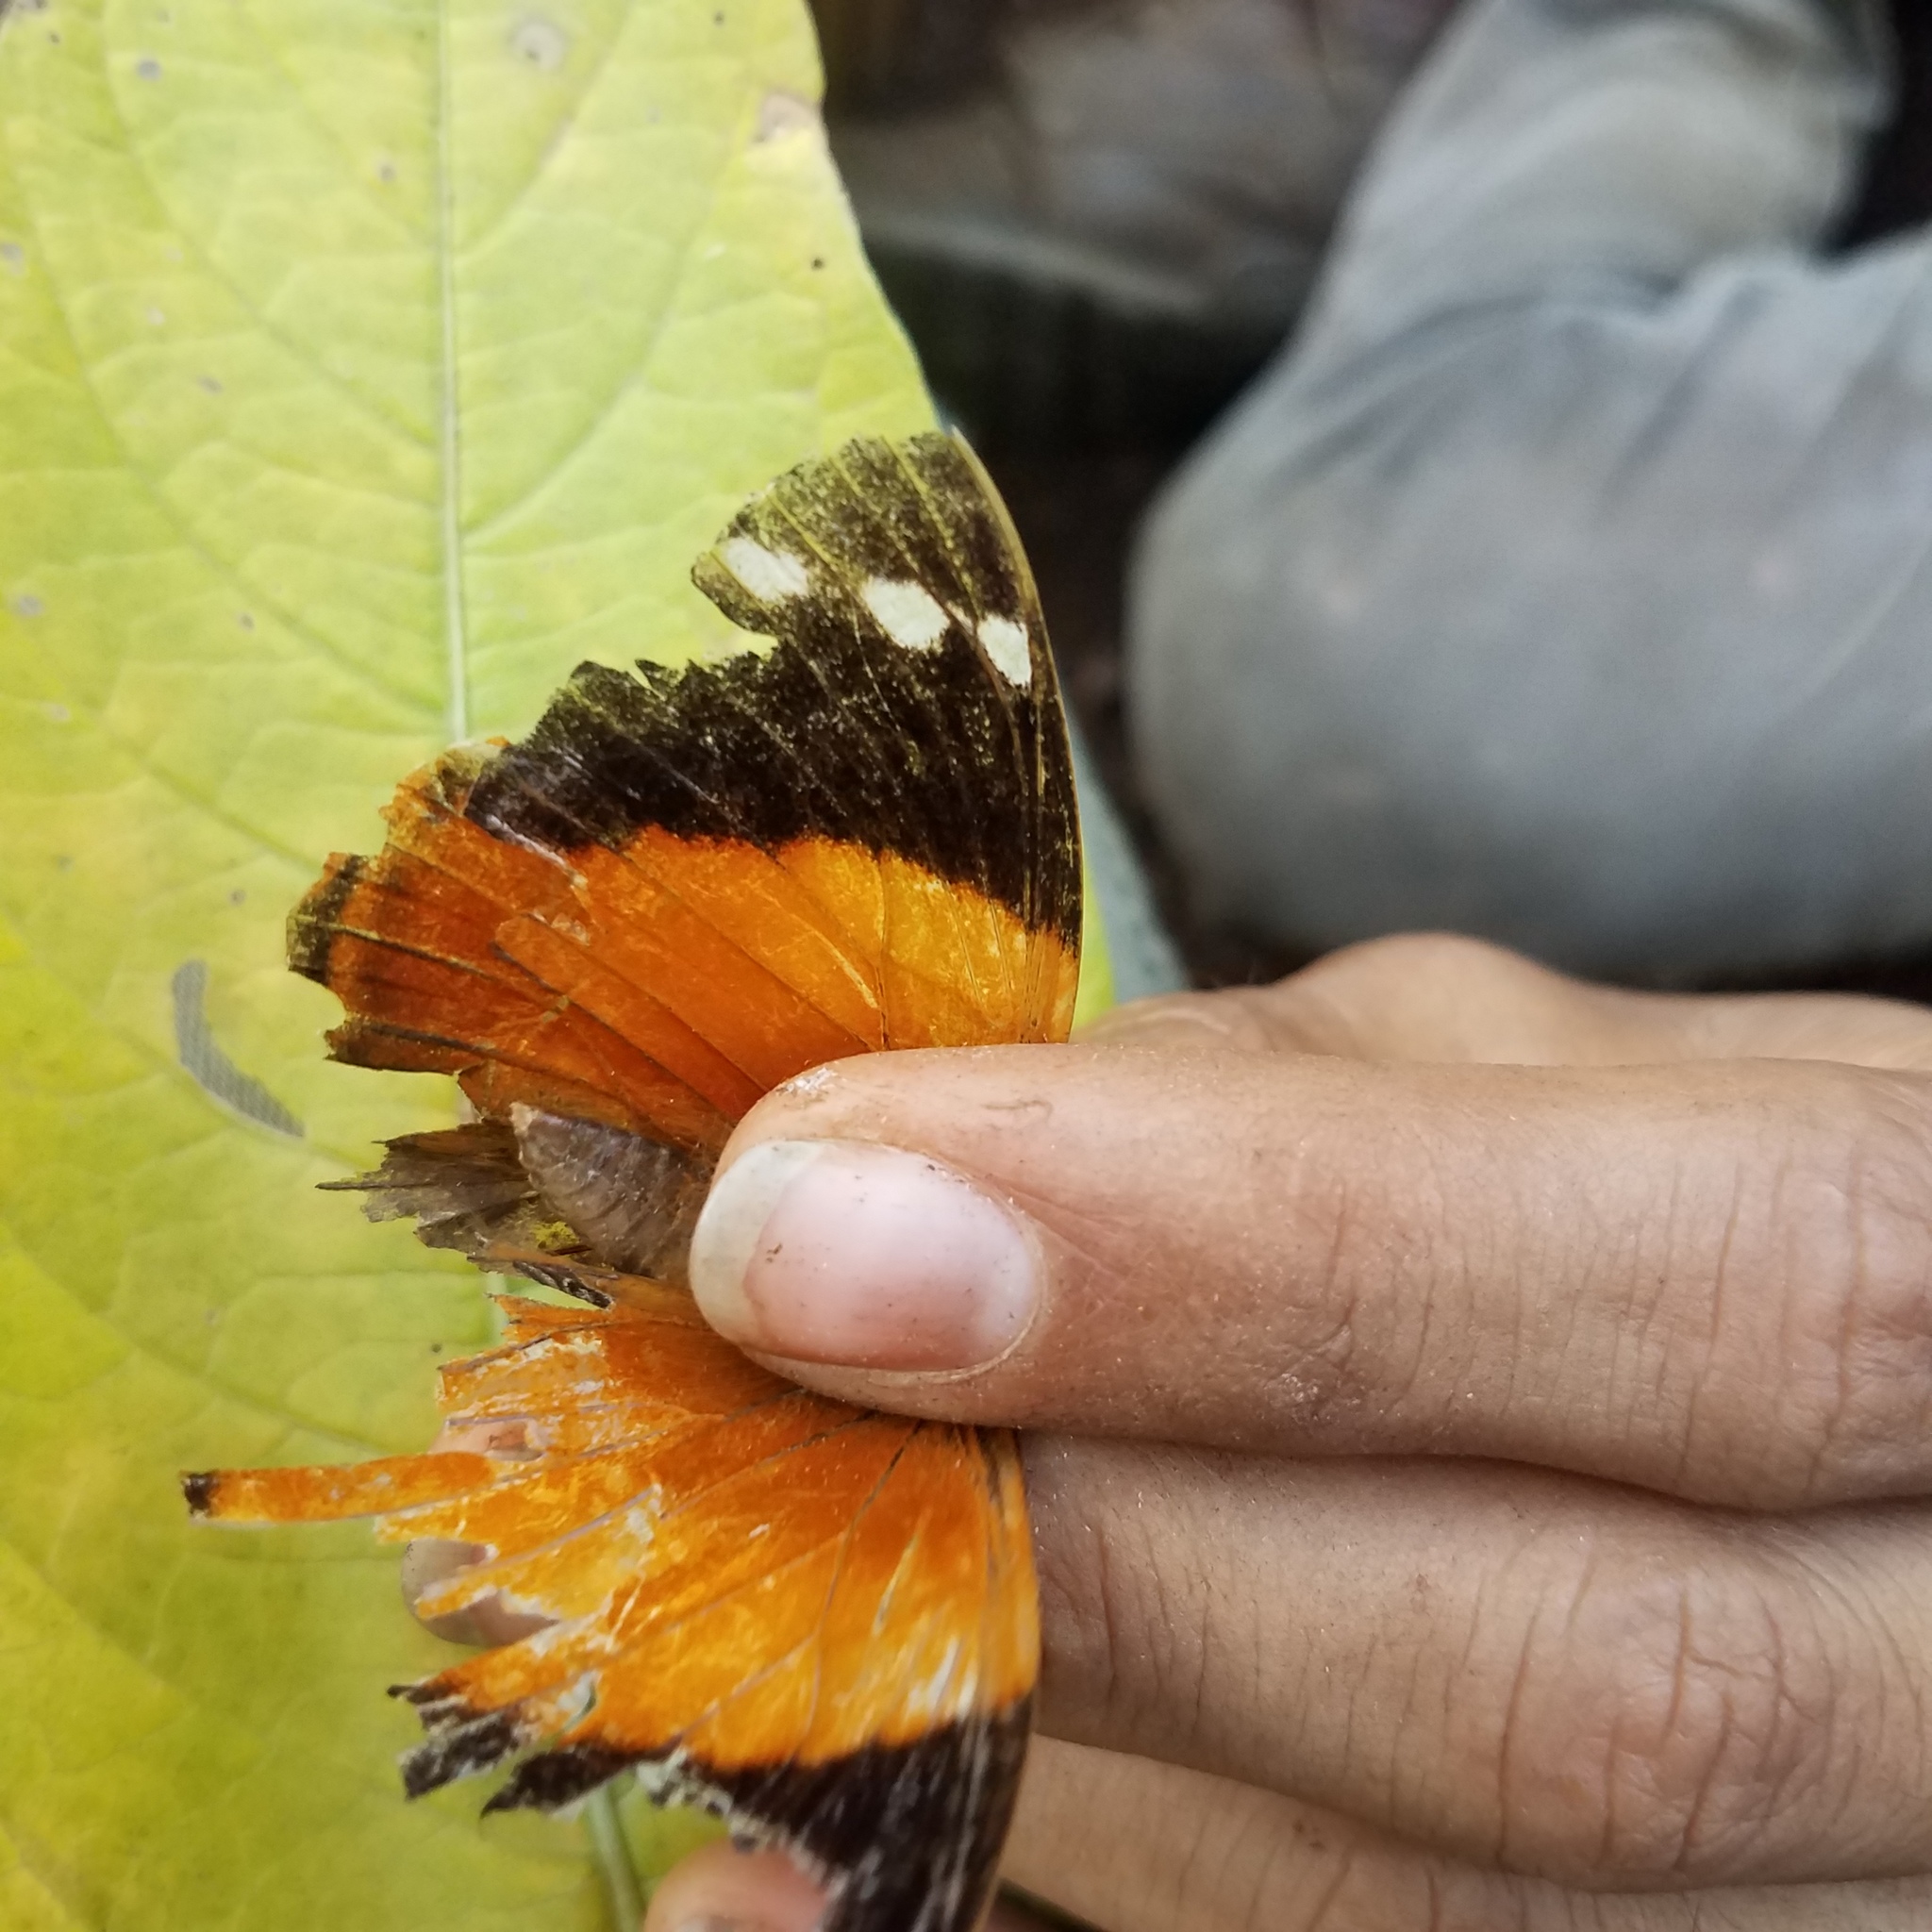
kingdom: Animalia
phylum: Arthropoda
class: Insecta
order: Lepidoptera
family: Nymphalidae
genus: Smyrna
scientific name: Smyrna blomfildia
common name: Blomfild's beauty
